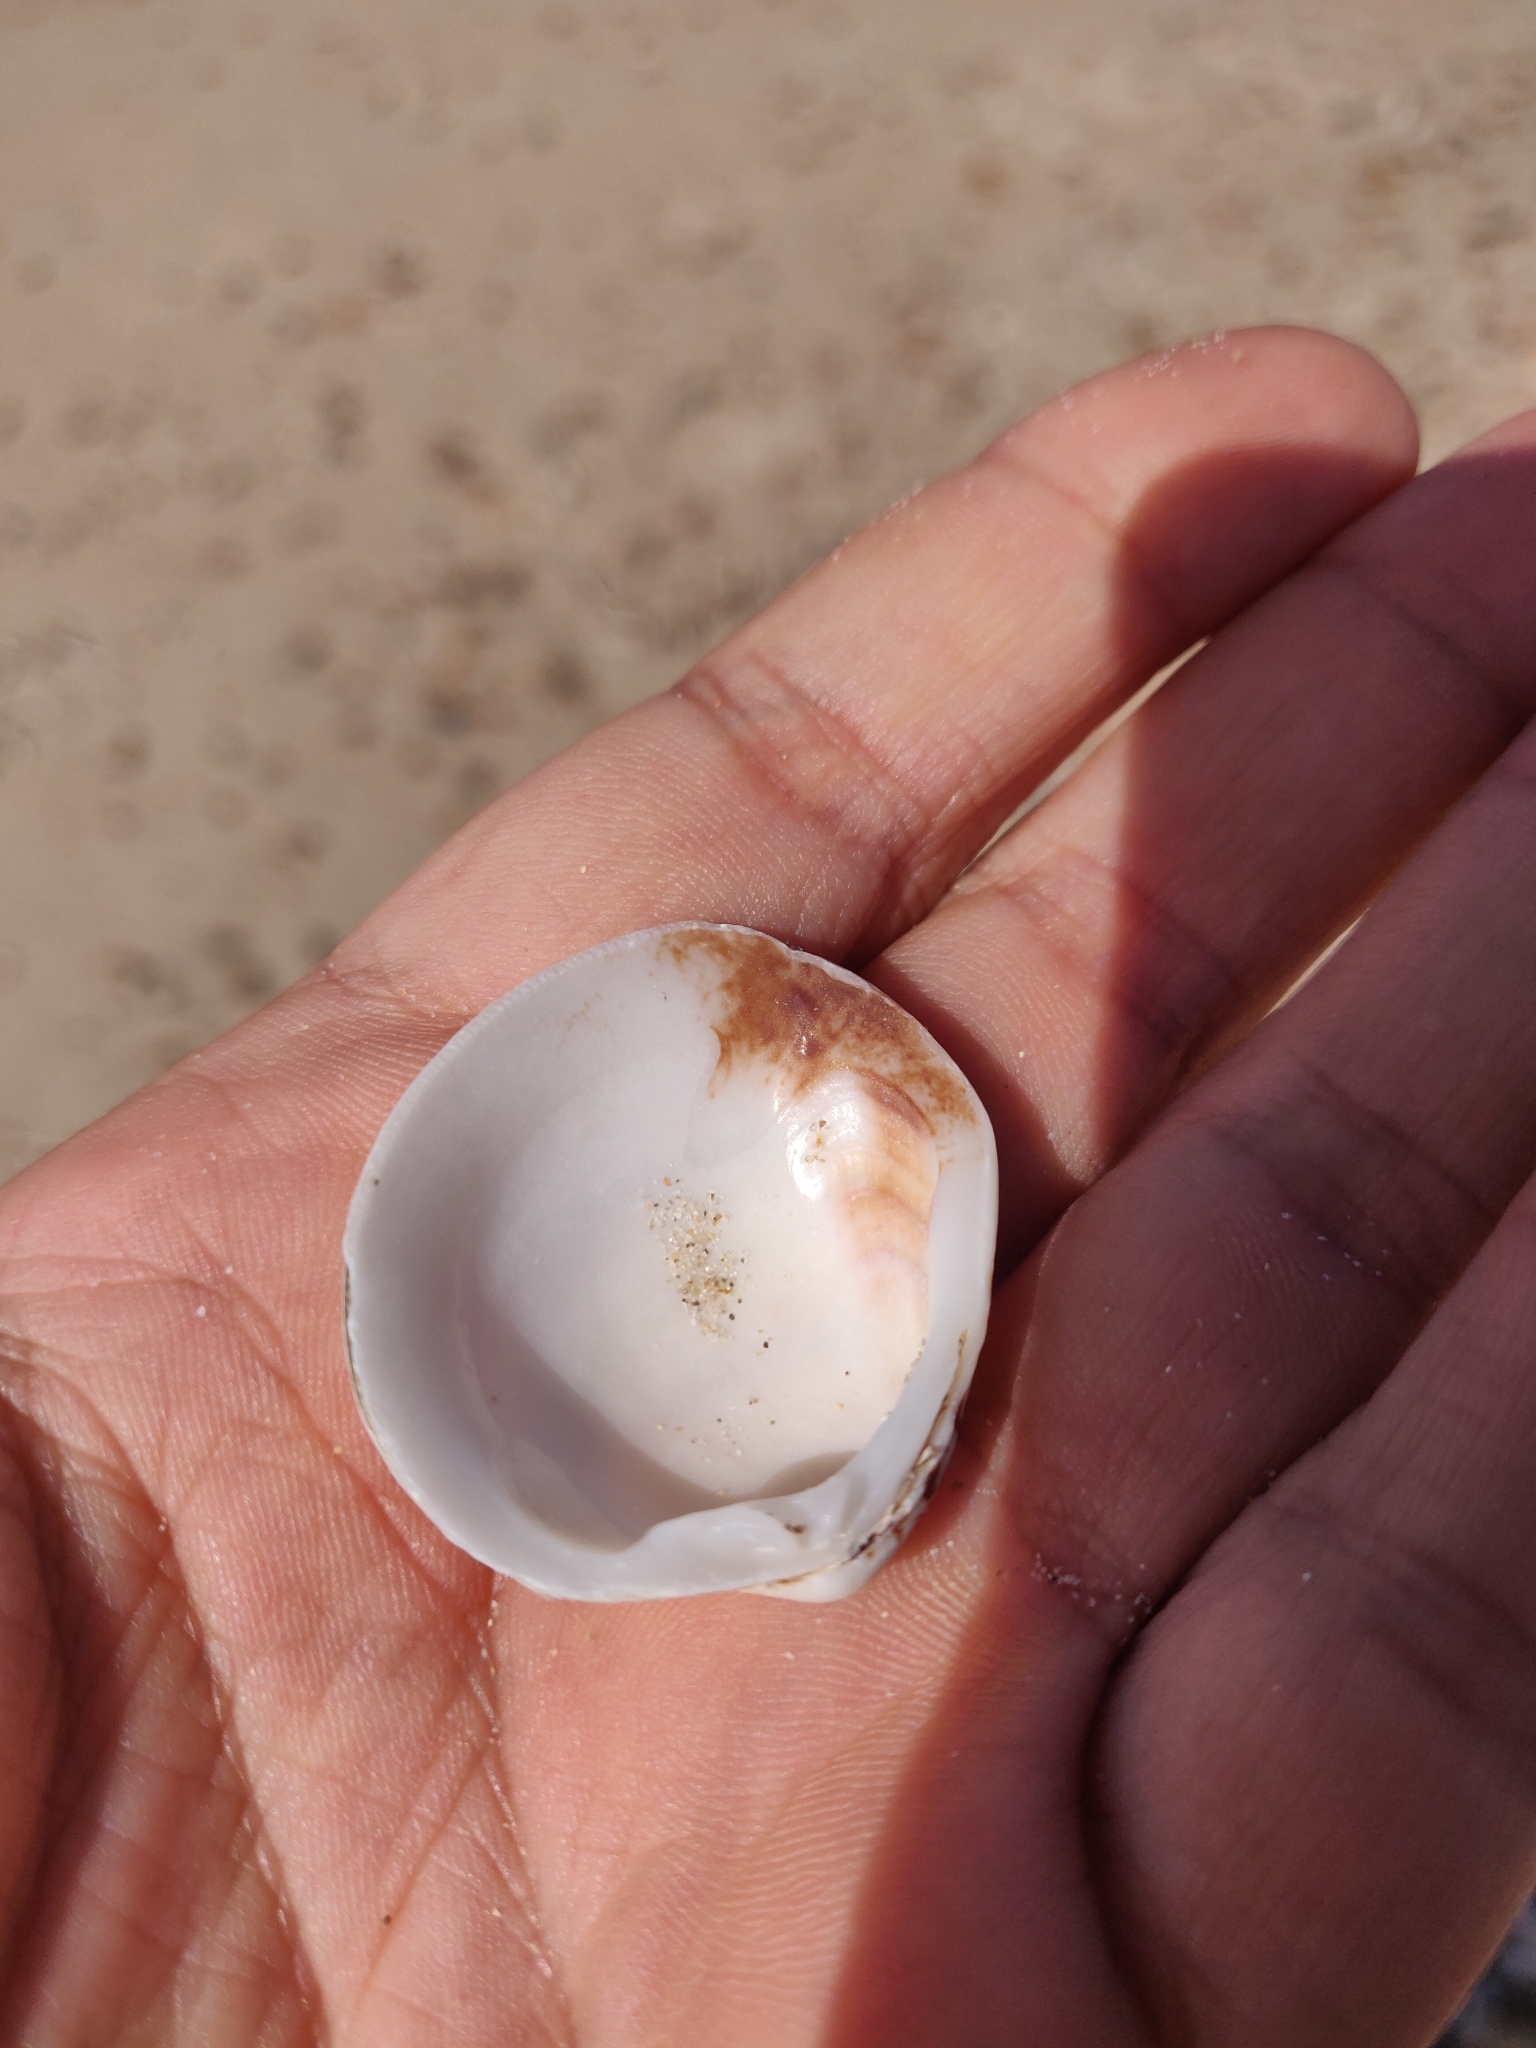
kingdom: Animalia
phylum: Mollusca
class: Bivalvia
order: Venerida
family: Veneridae
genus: Venus
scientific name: Venus verrucosa
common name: Warty venus
